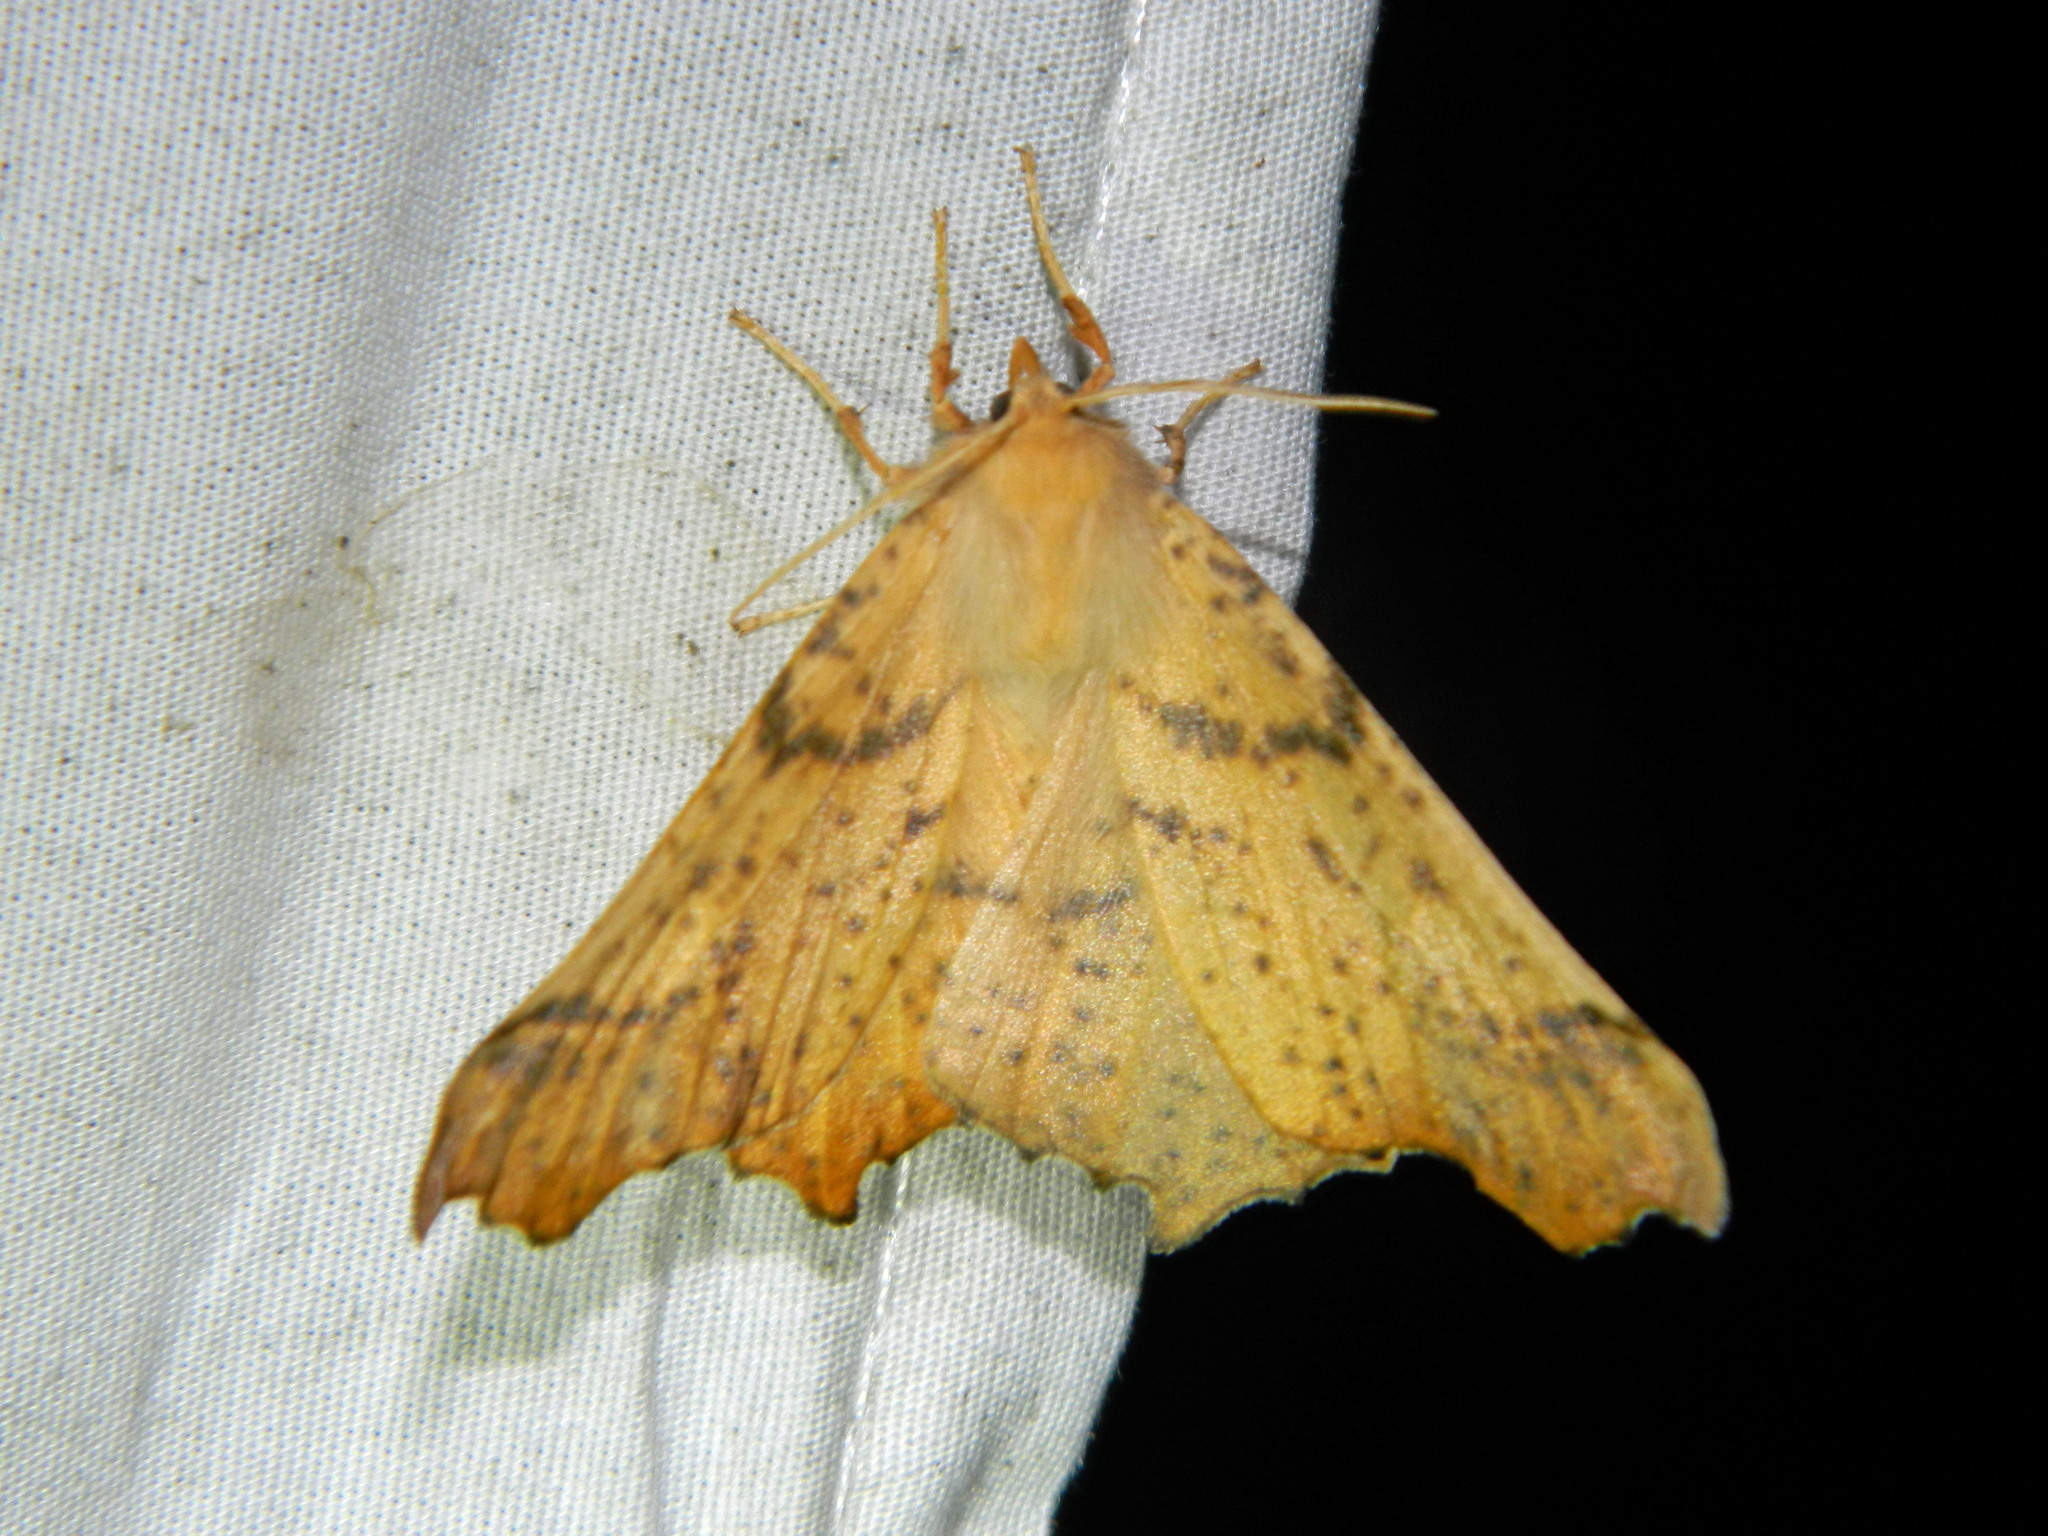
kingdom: Animalia
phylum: Arthropoda
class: Insecta
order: Lepidoptera
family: Geometridae
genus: Ennomos
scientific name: Ennomos magnaria
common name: Maple spanworm
